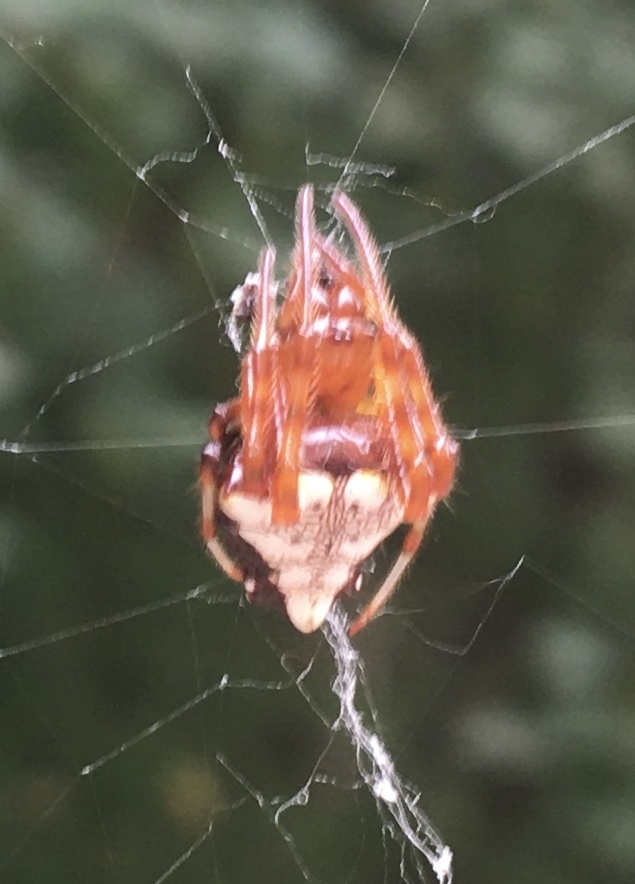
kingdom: Animalia
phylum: Arthropoda
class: Arachnida
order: Araneae
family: Araneidae
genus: Verrucosa
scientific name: Verrucosa arenata
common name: Orb weavers
